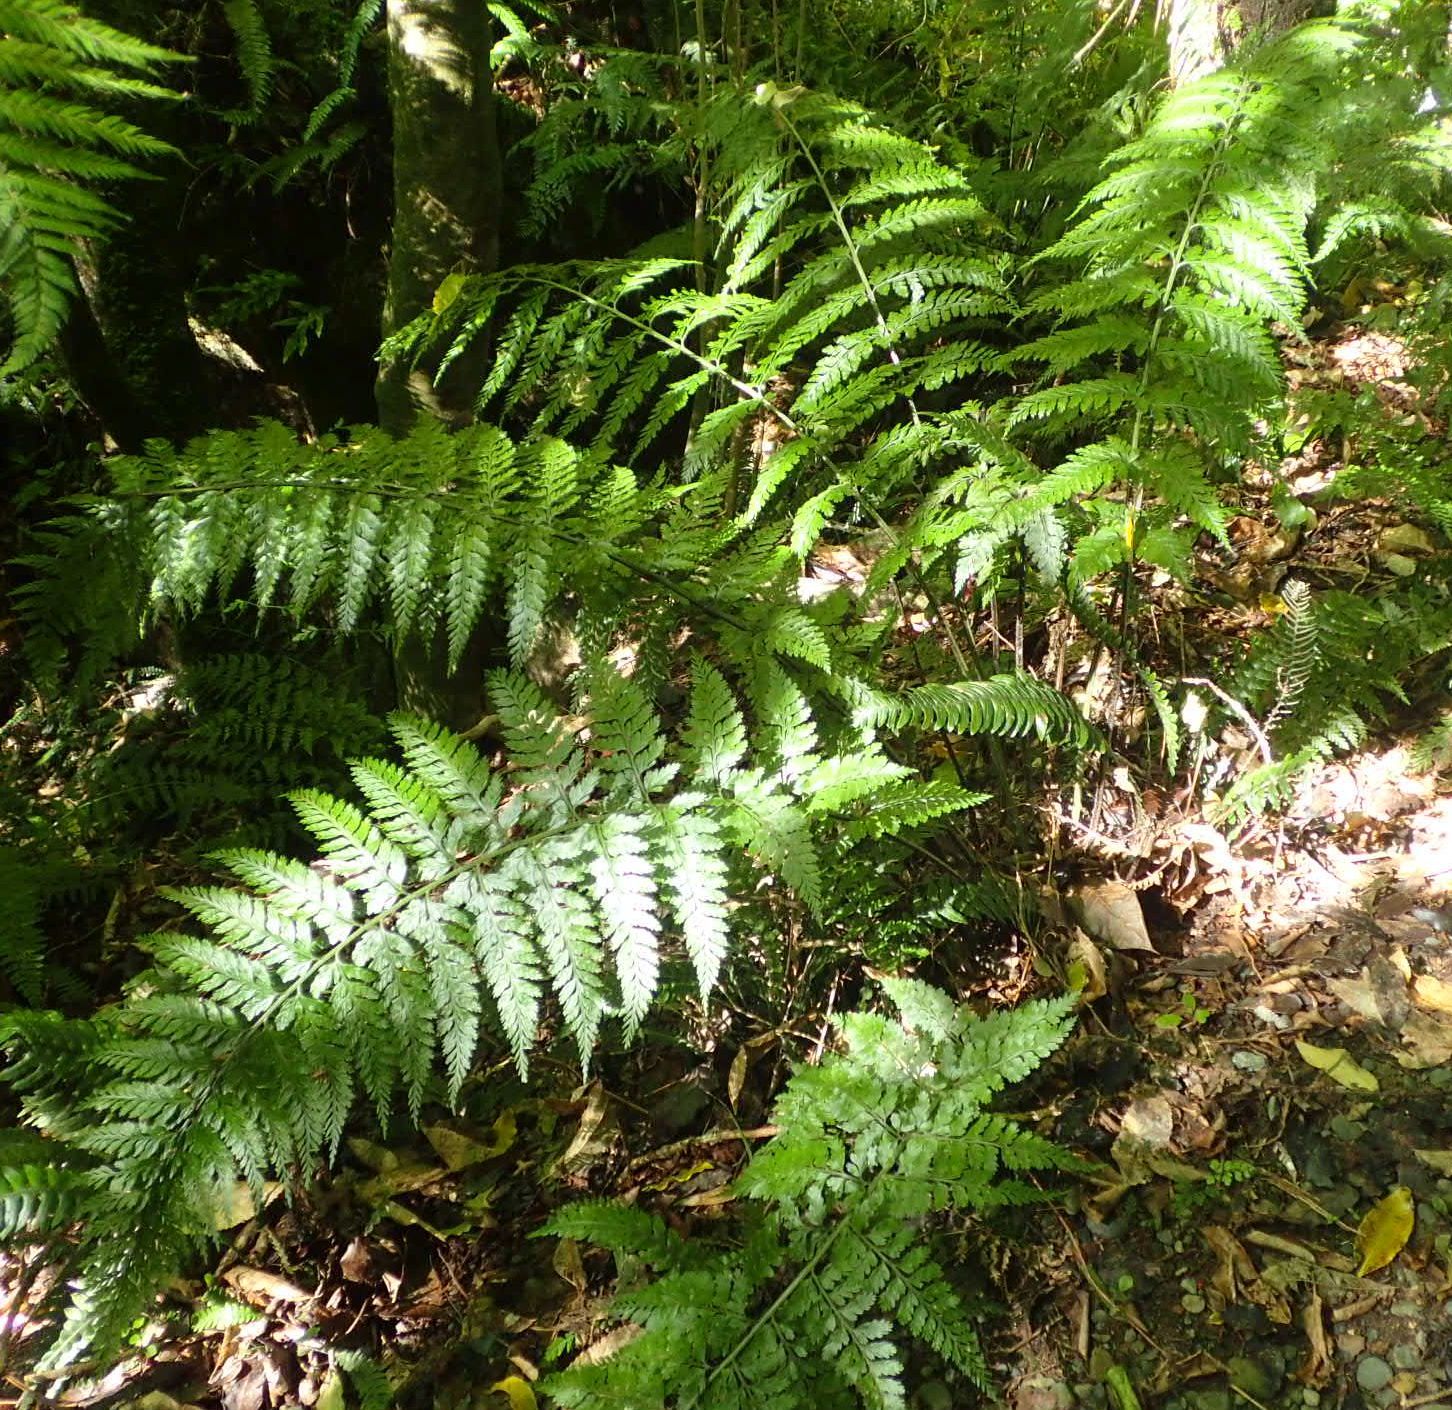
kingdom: Plantae
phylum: Tracheophyta
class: Polypodiopsida
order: Polypodiales
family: Aspleniaceae
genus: Asplenium
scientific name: Asplenium
